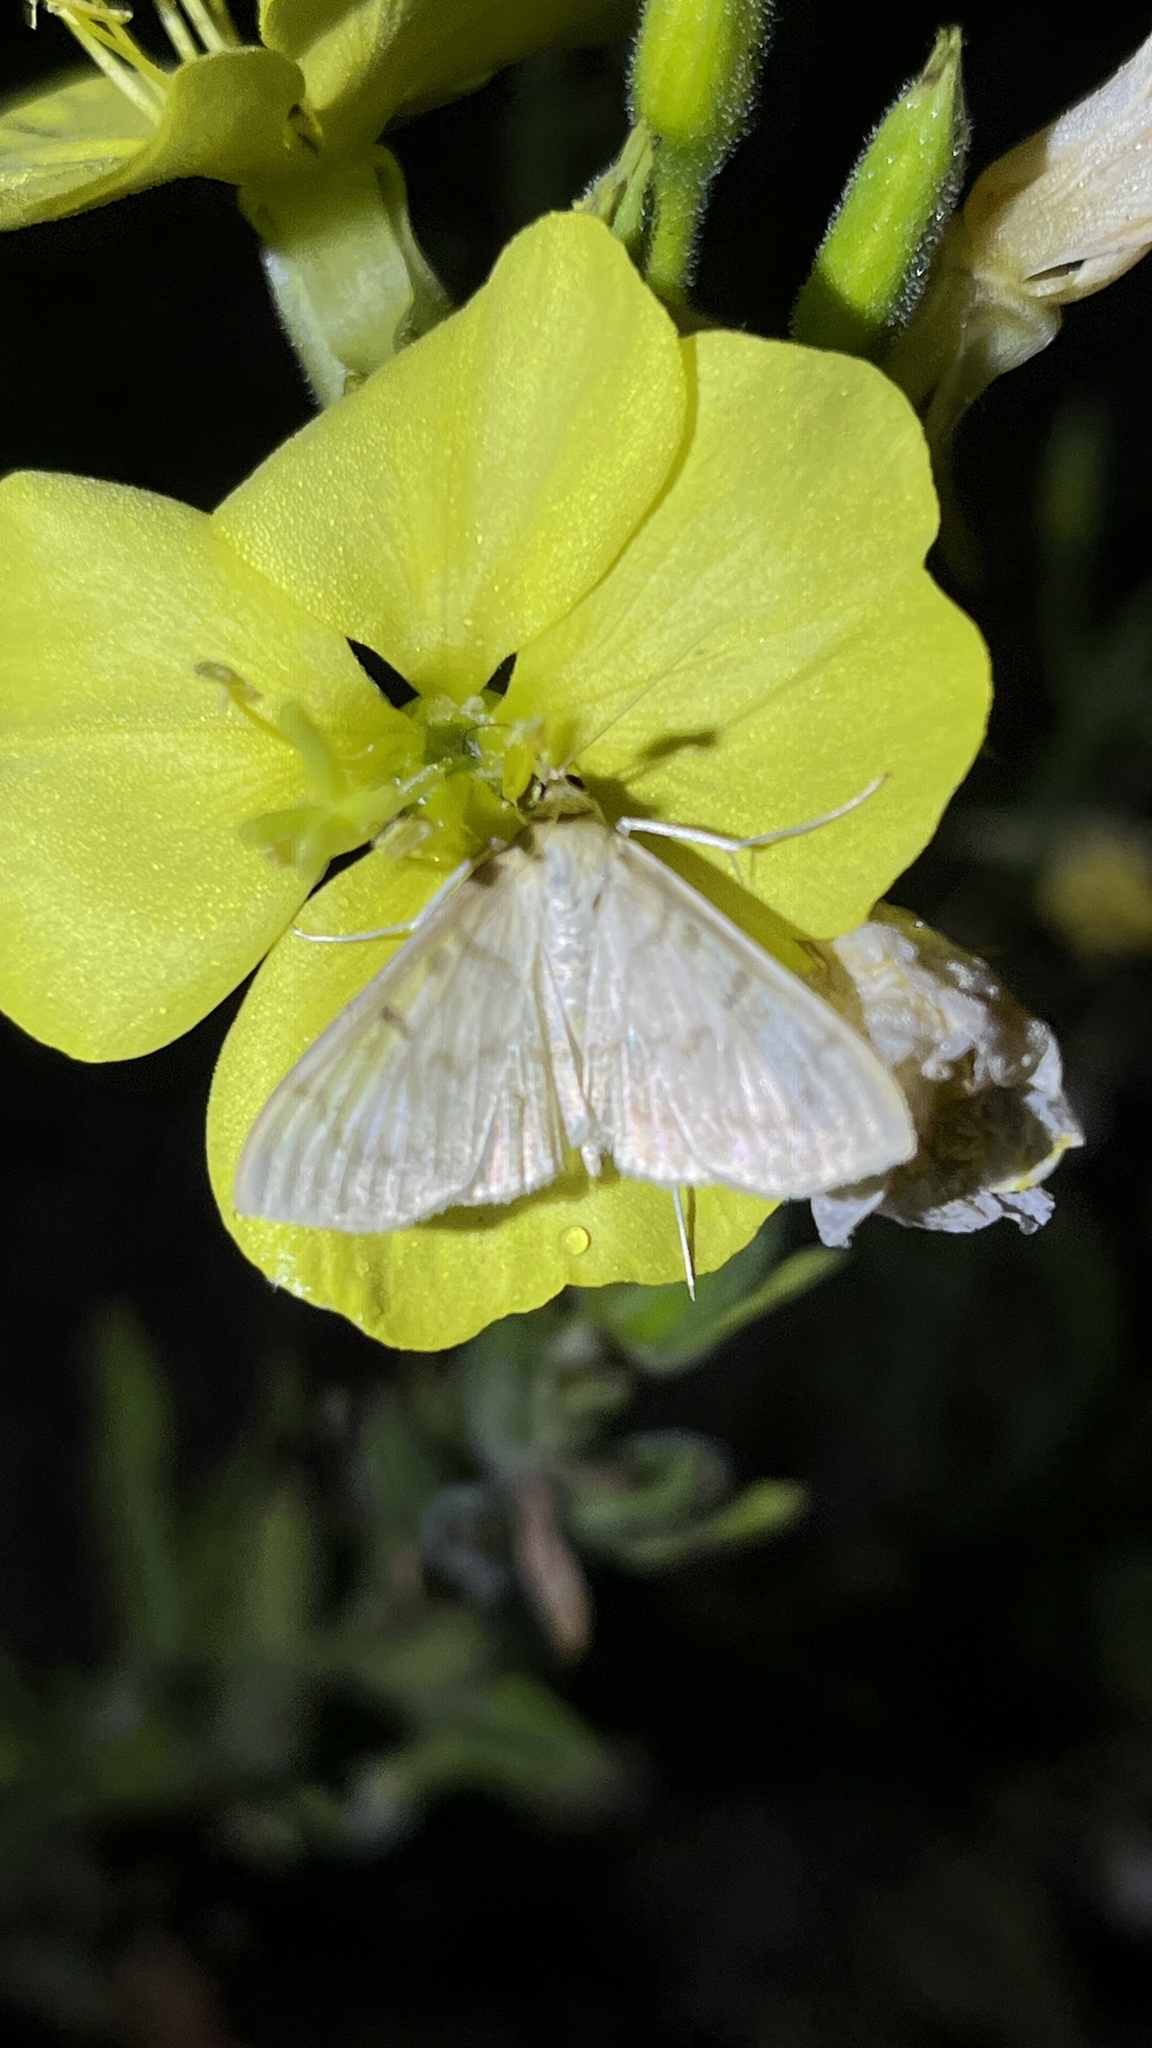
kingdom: Animalia
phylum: Arthropoda
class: Insecta
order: Lepidoptera
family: Crambidae
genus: Patania
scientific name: Patania ruralis
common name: Mother of pearl
